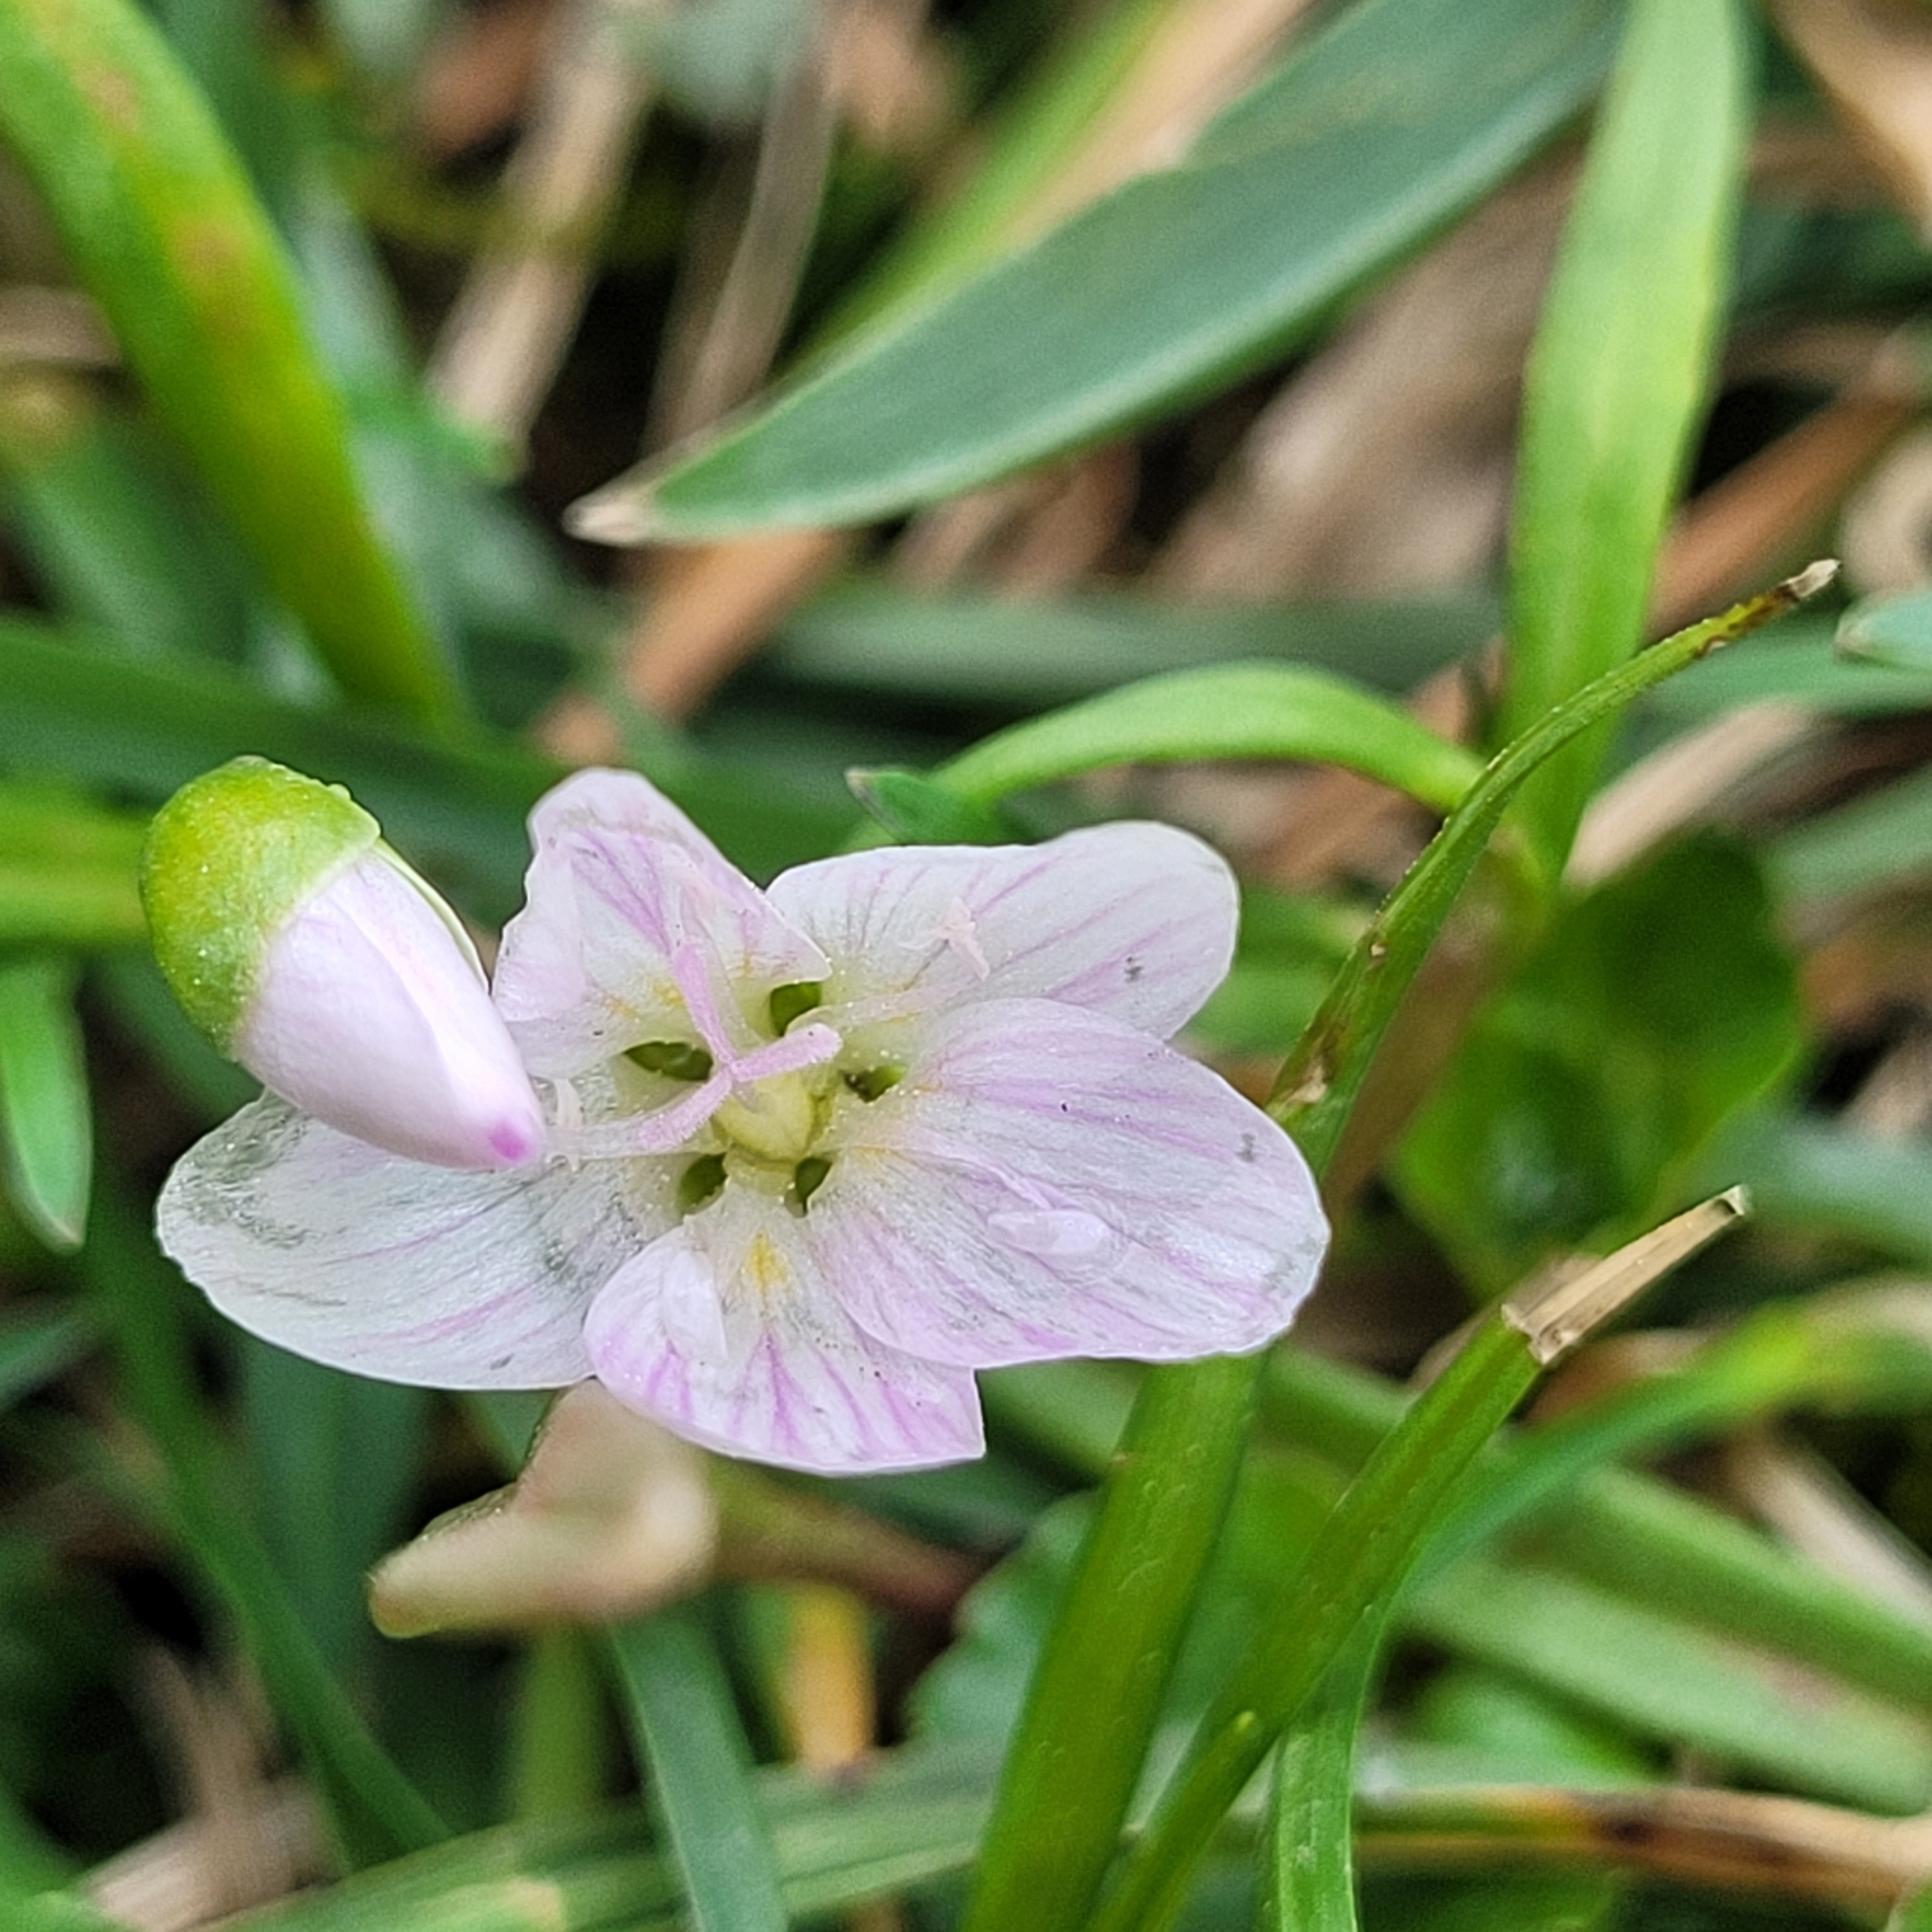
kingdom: Plantae
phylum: Tracheophyta
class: Magnoliopsida
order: Caryophyllales
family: Montiaceae
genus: Claytonia
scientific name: Claytonia virginica
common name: Virginia springbeauty
